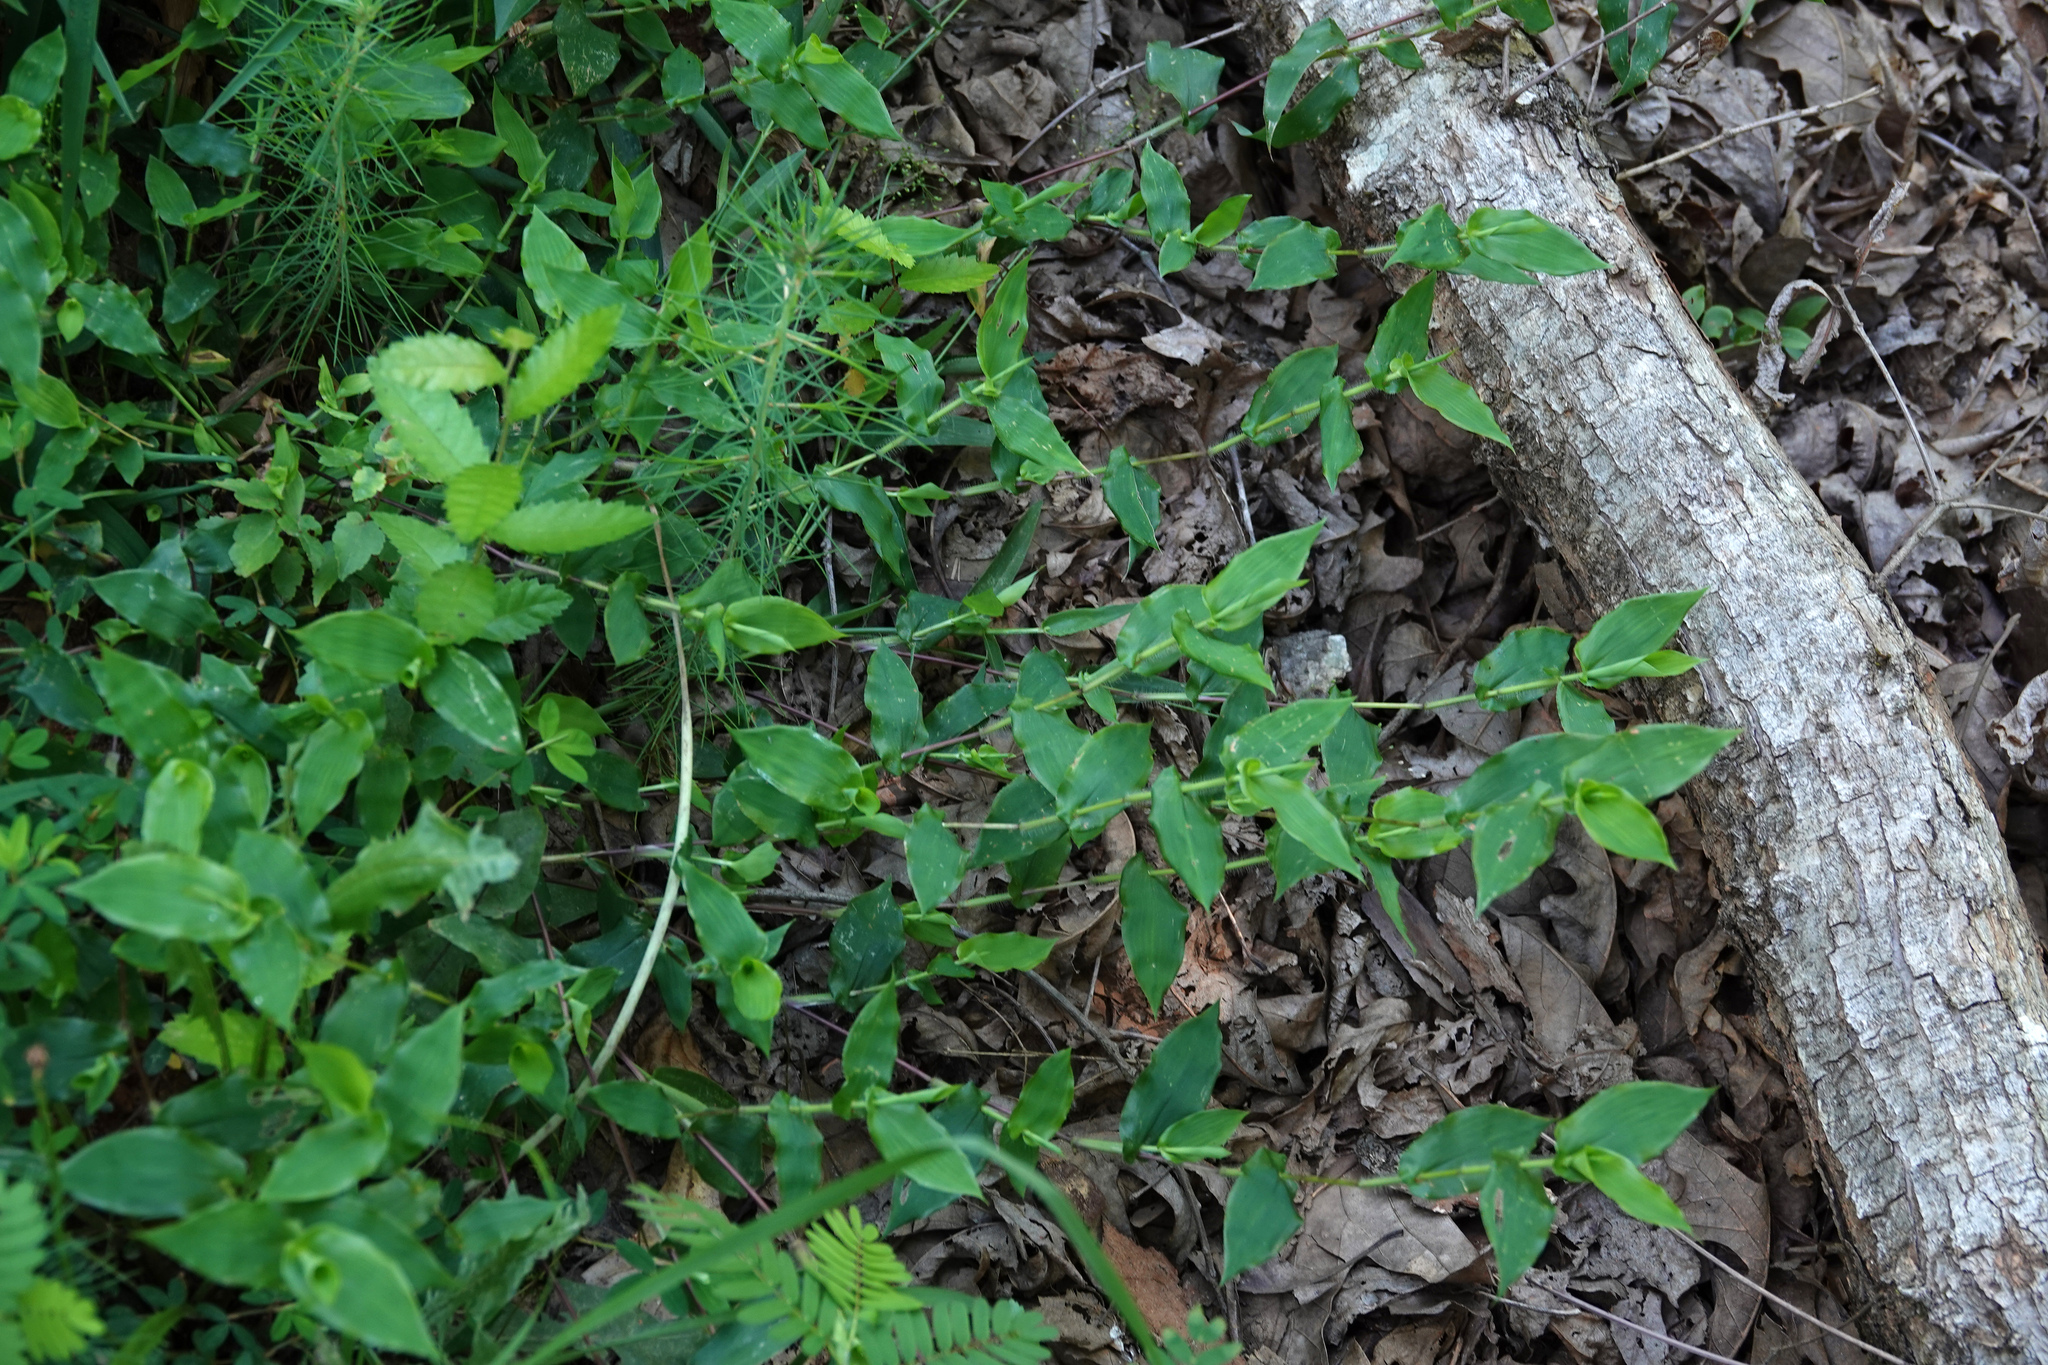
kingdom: Plantae
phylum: Tracheophyta
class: Liliopsida
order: Poales
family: Poaceae
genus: Arthraxon
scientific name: Arthraxon hispidus
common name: Small carpgrass
